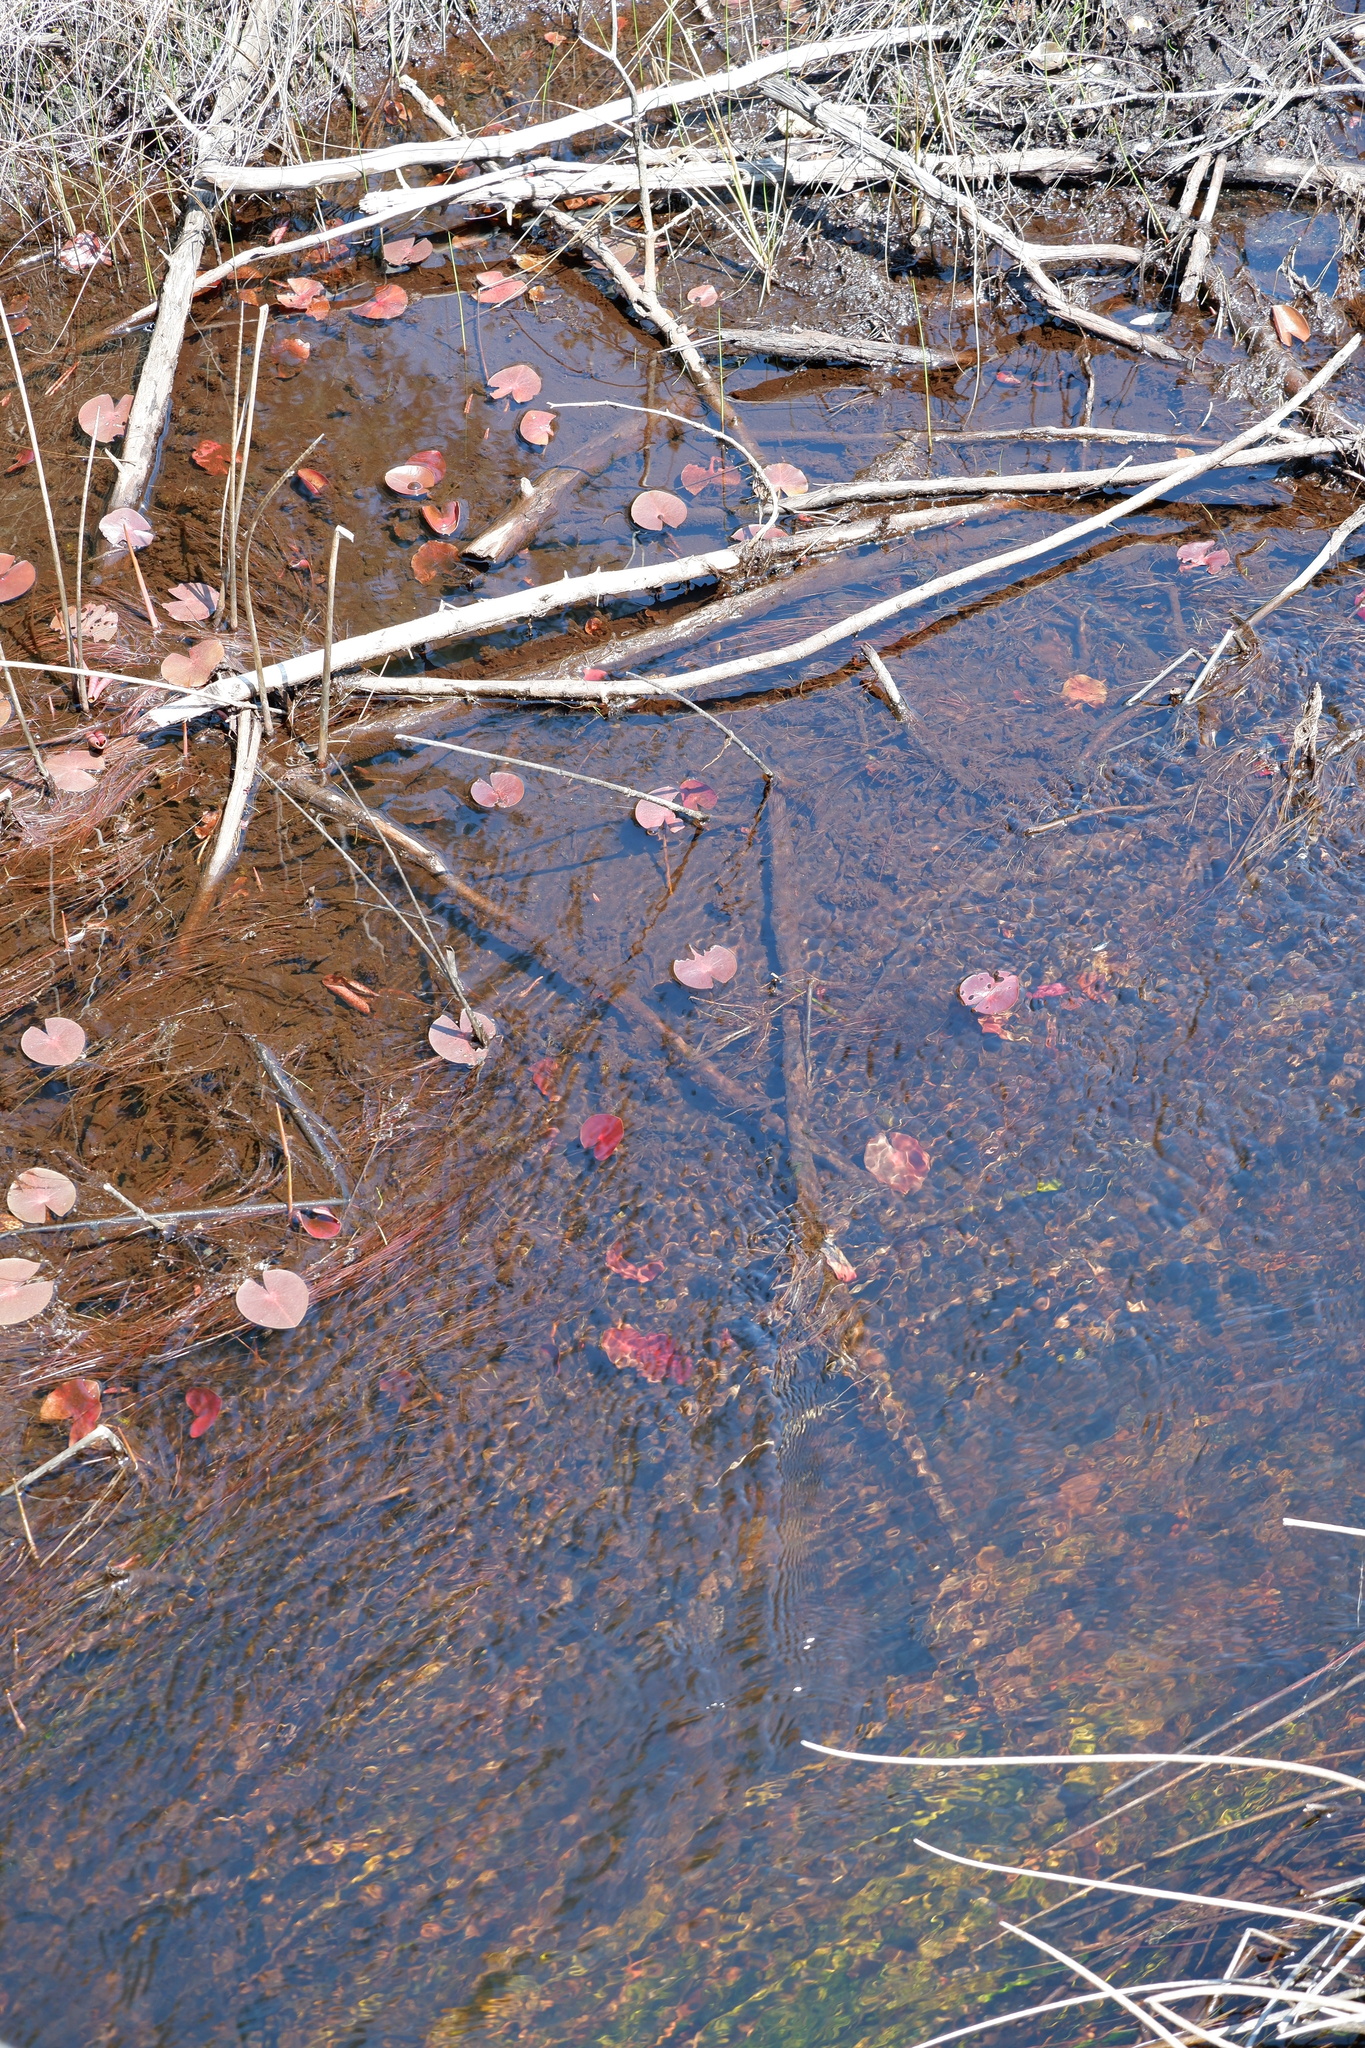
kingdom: Plantae
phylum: Tracheophyta
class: Magnoliopsida
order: Nymphaeales
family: Nymphaeaceae
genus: Nymphaea
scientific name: Nymphaea odorata
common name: Fragrant water-lily
